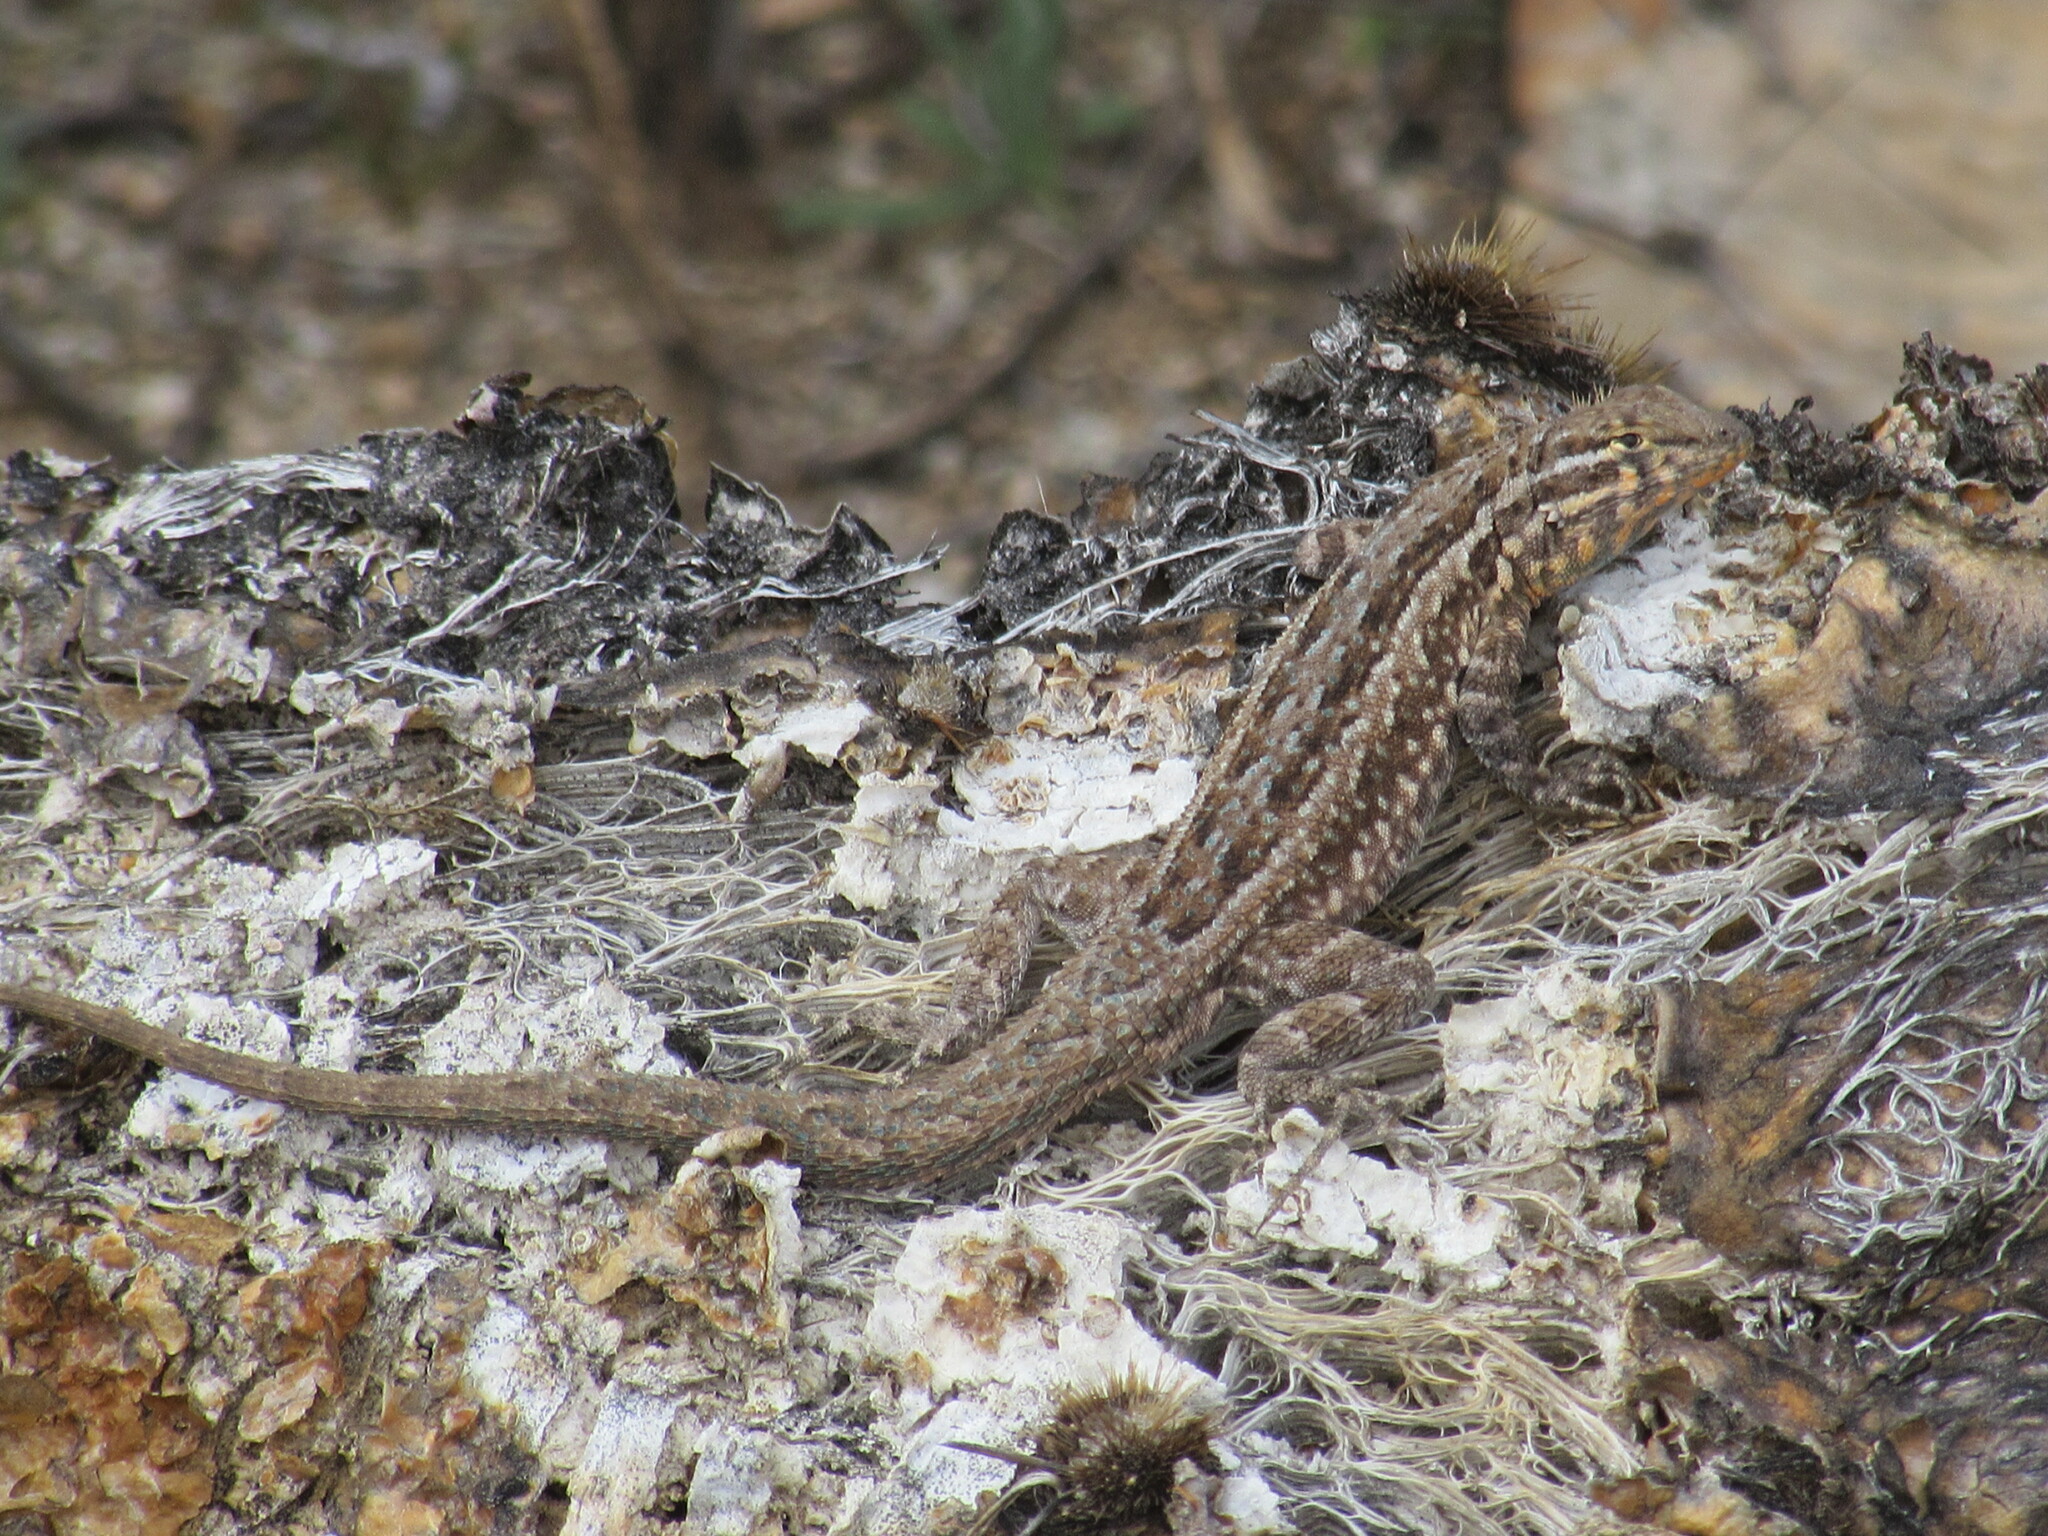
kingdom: Animalia
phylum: Chordata
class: Squamata
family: Phrynosomatidae
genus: Uta
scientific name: Uta stansburiana
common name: Side-blotched lizard
